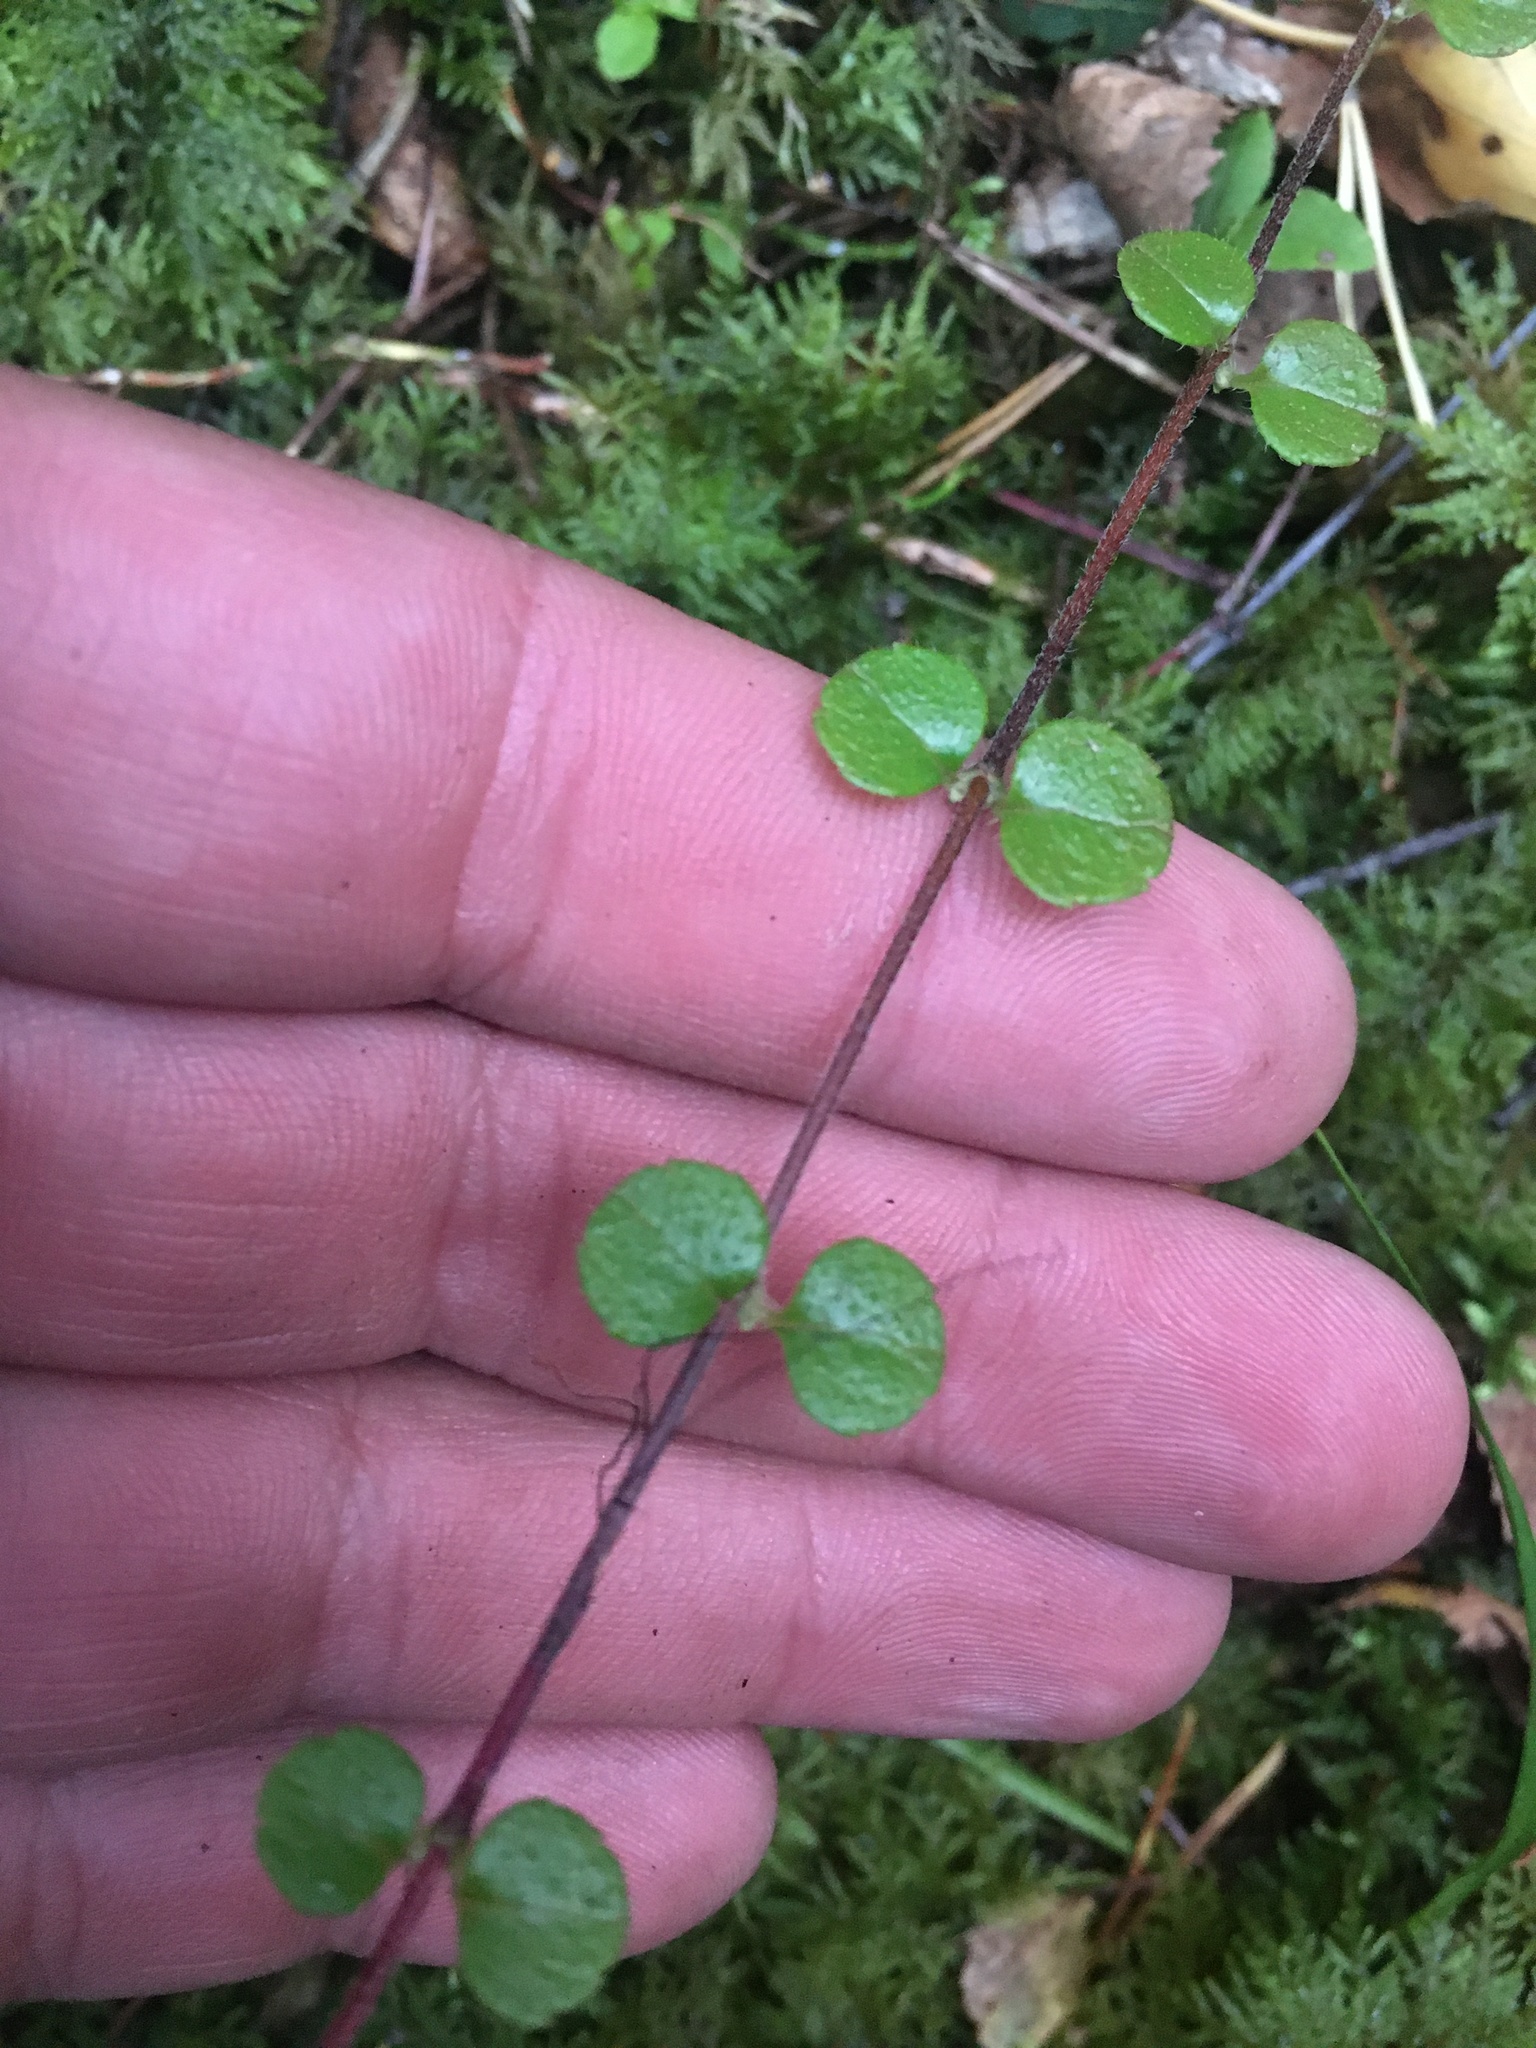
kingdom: Plantae
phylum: Tracheophyta
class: Magnoliopsida
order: Dipsacales
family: Caprifoliaceae
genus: Linnaea
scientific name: Linnaea borealis
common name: Twinflower
